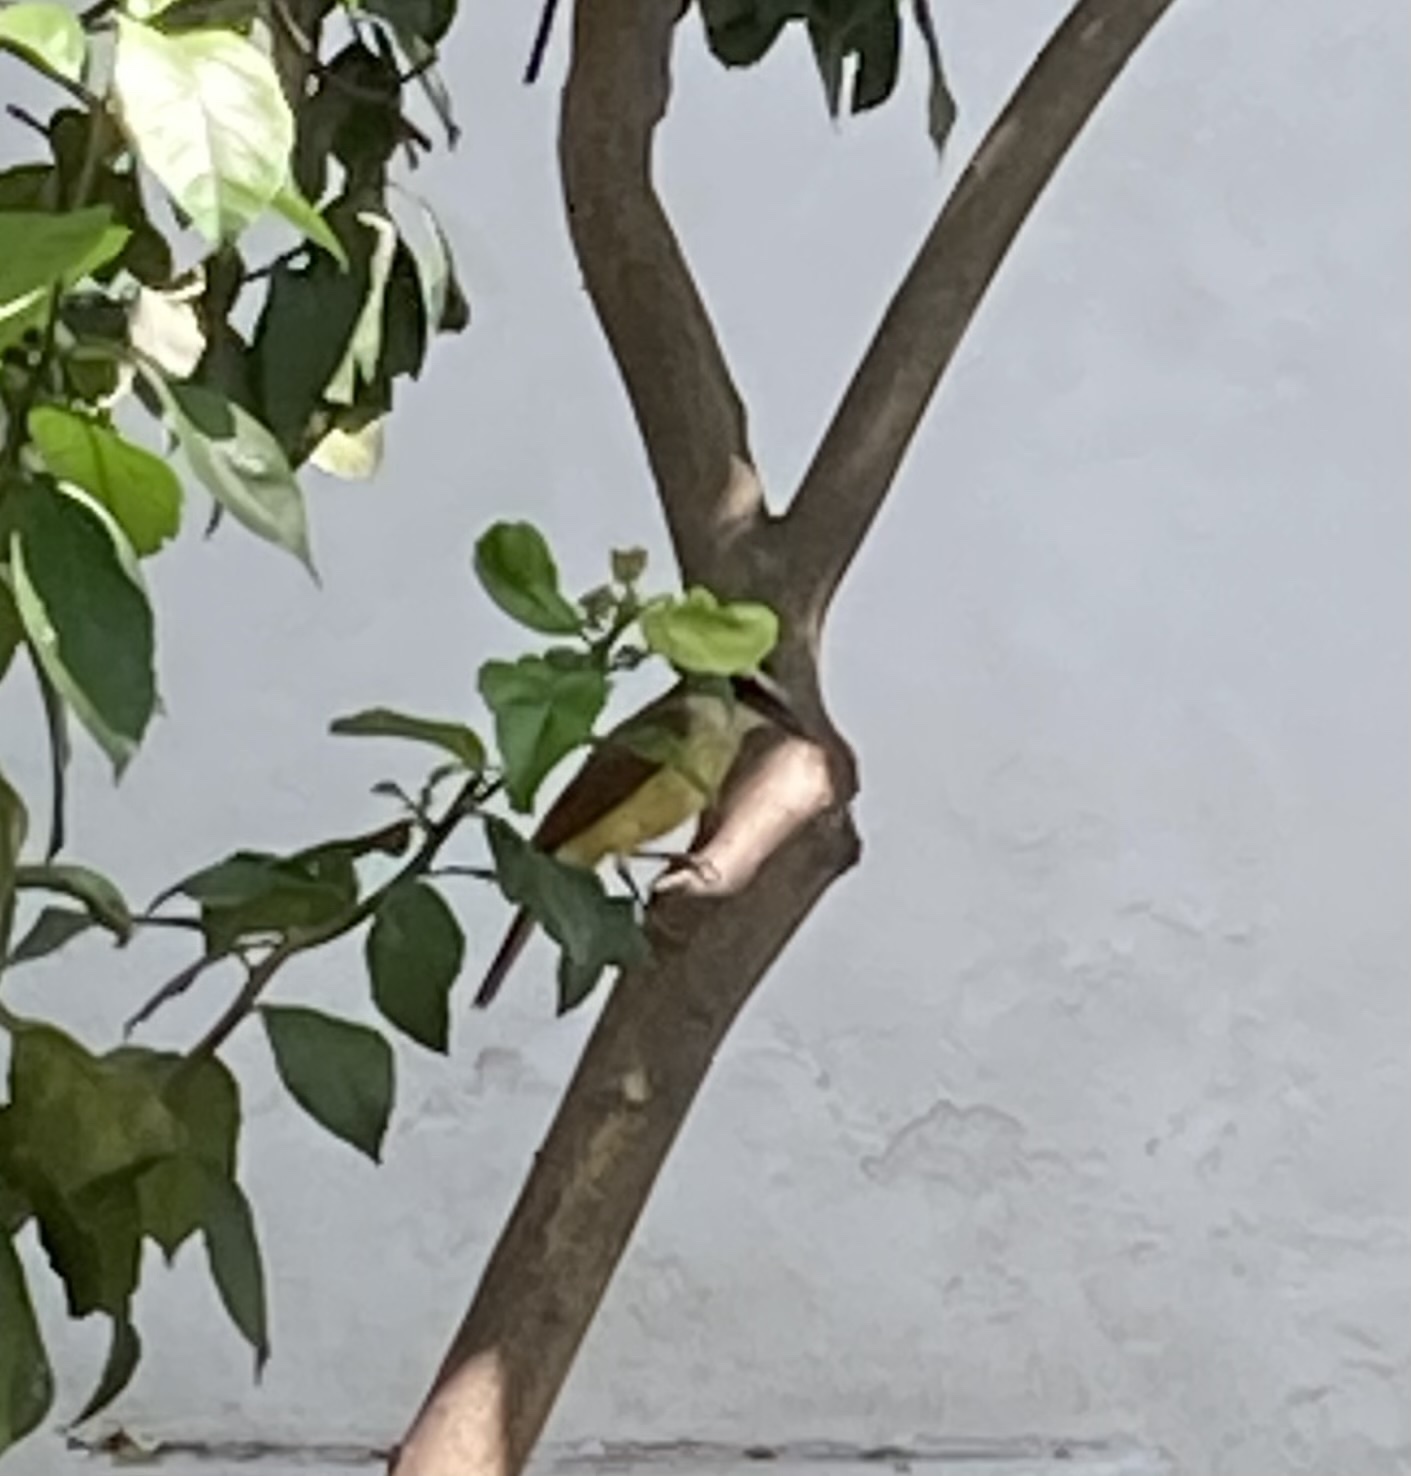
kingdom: Animalia
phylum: Chordata
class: Aves
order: Passeriformes
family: Tyrannidae
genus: Pitangus
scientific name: Pitangus sulphuratus
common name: Great kiskadee
